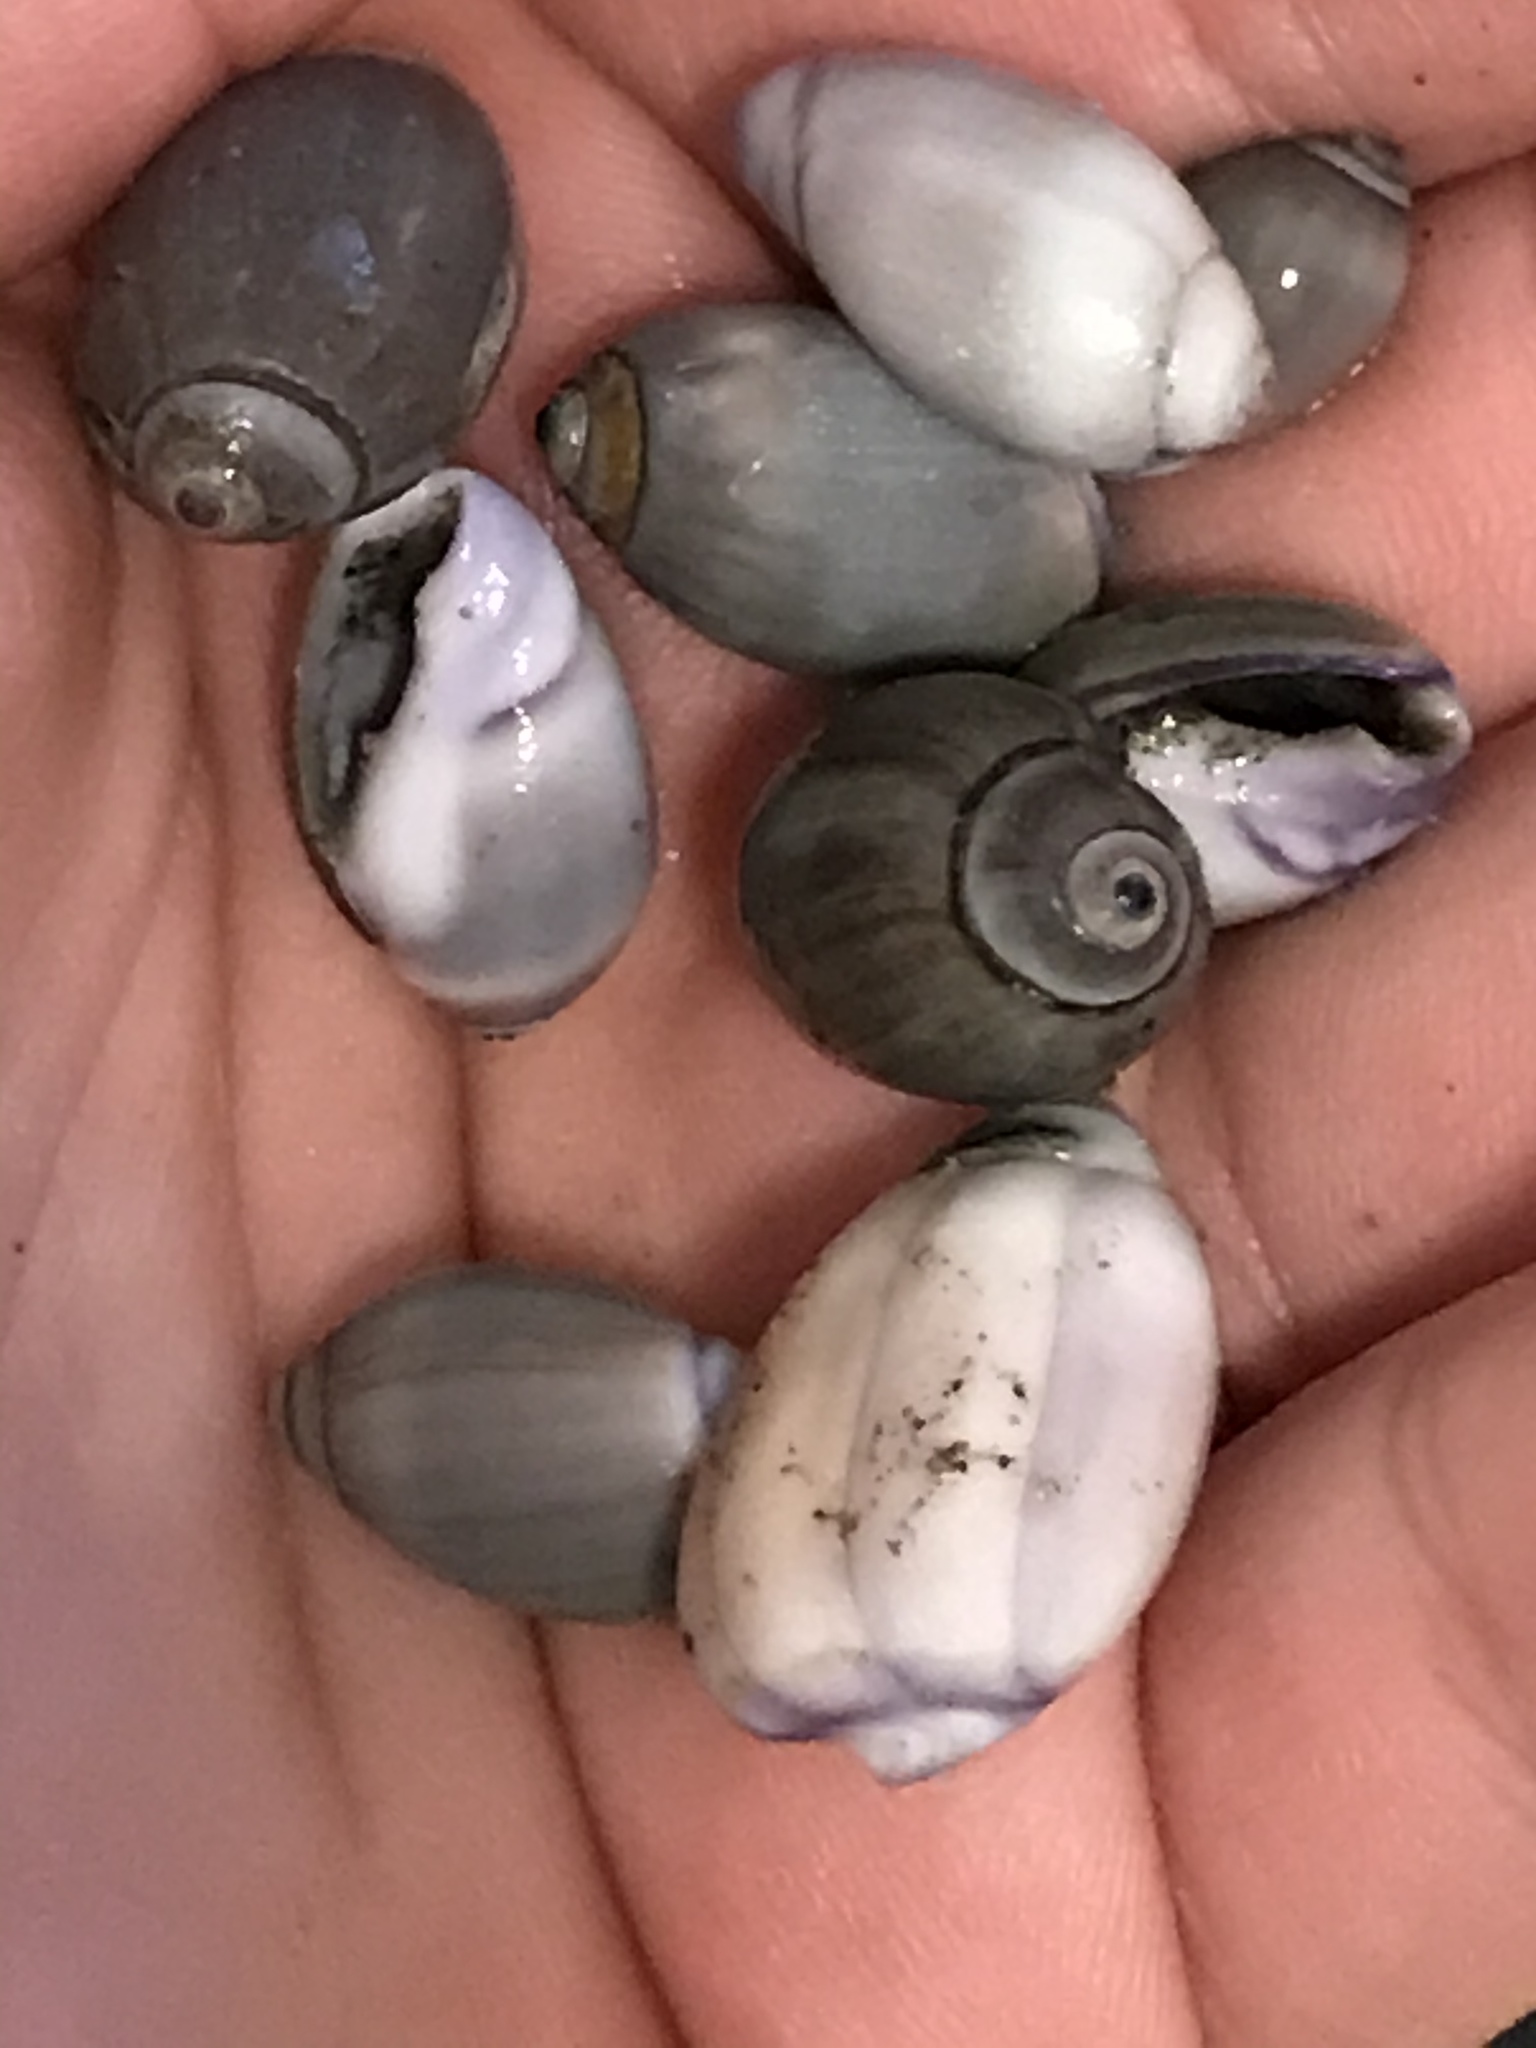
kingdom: Animalia
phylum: Mollusca
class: Gastropoda
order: Neogastropoda
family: Olividae
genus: Callianax
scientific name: Callianax biplicata
